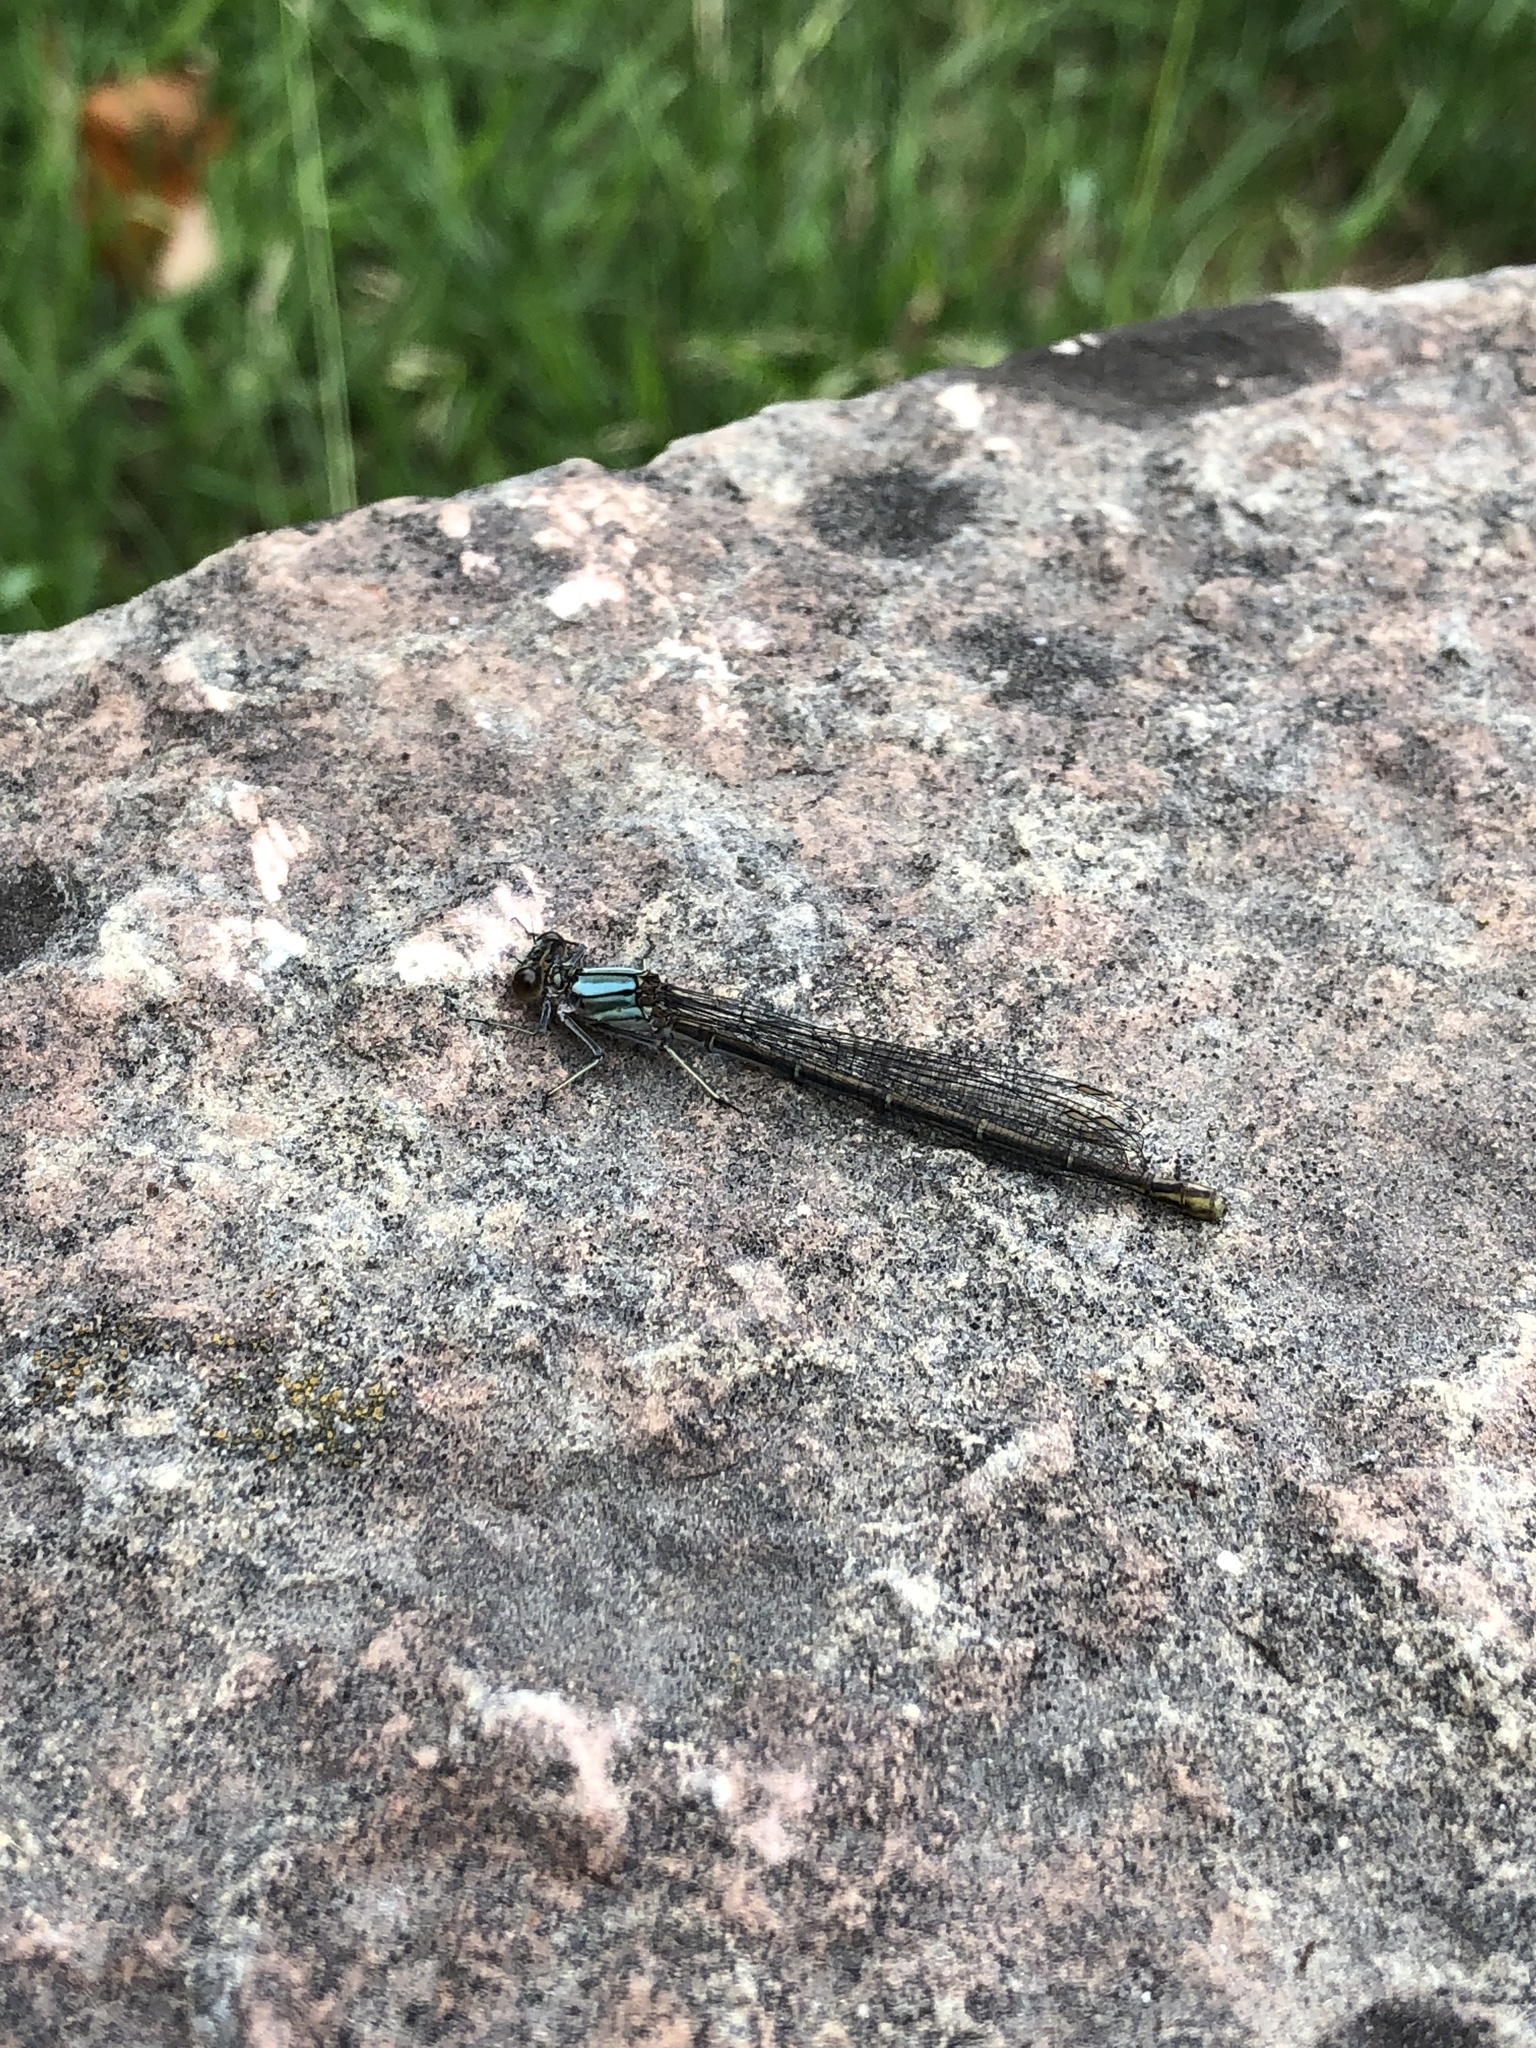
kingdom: Animalia
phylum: Arthropoda
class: Insecta
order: Odonata
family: Coenagrionidae
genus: Argia
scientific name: Argia moesta
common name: Powdered dancer
